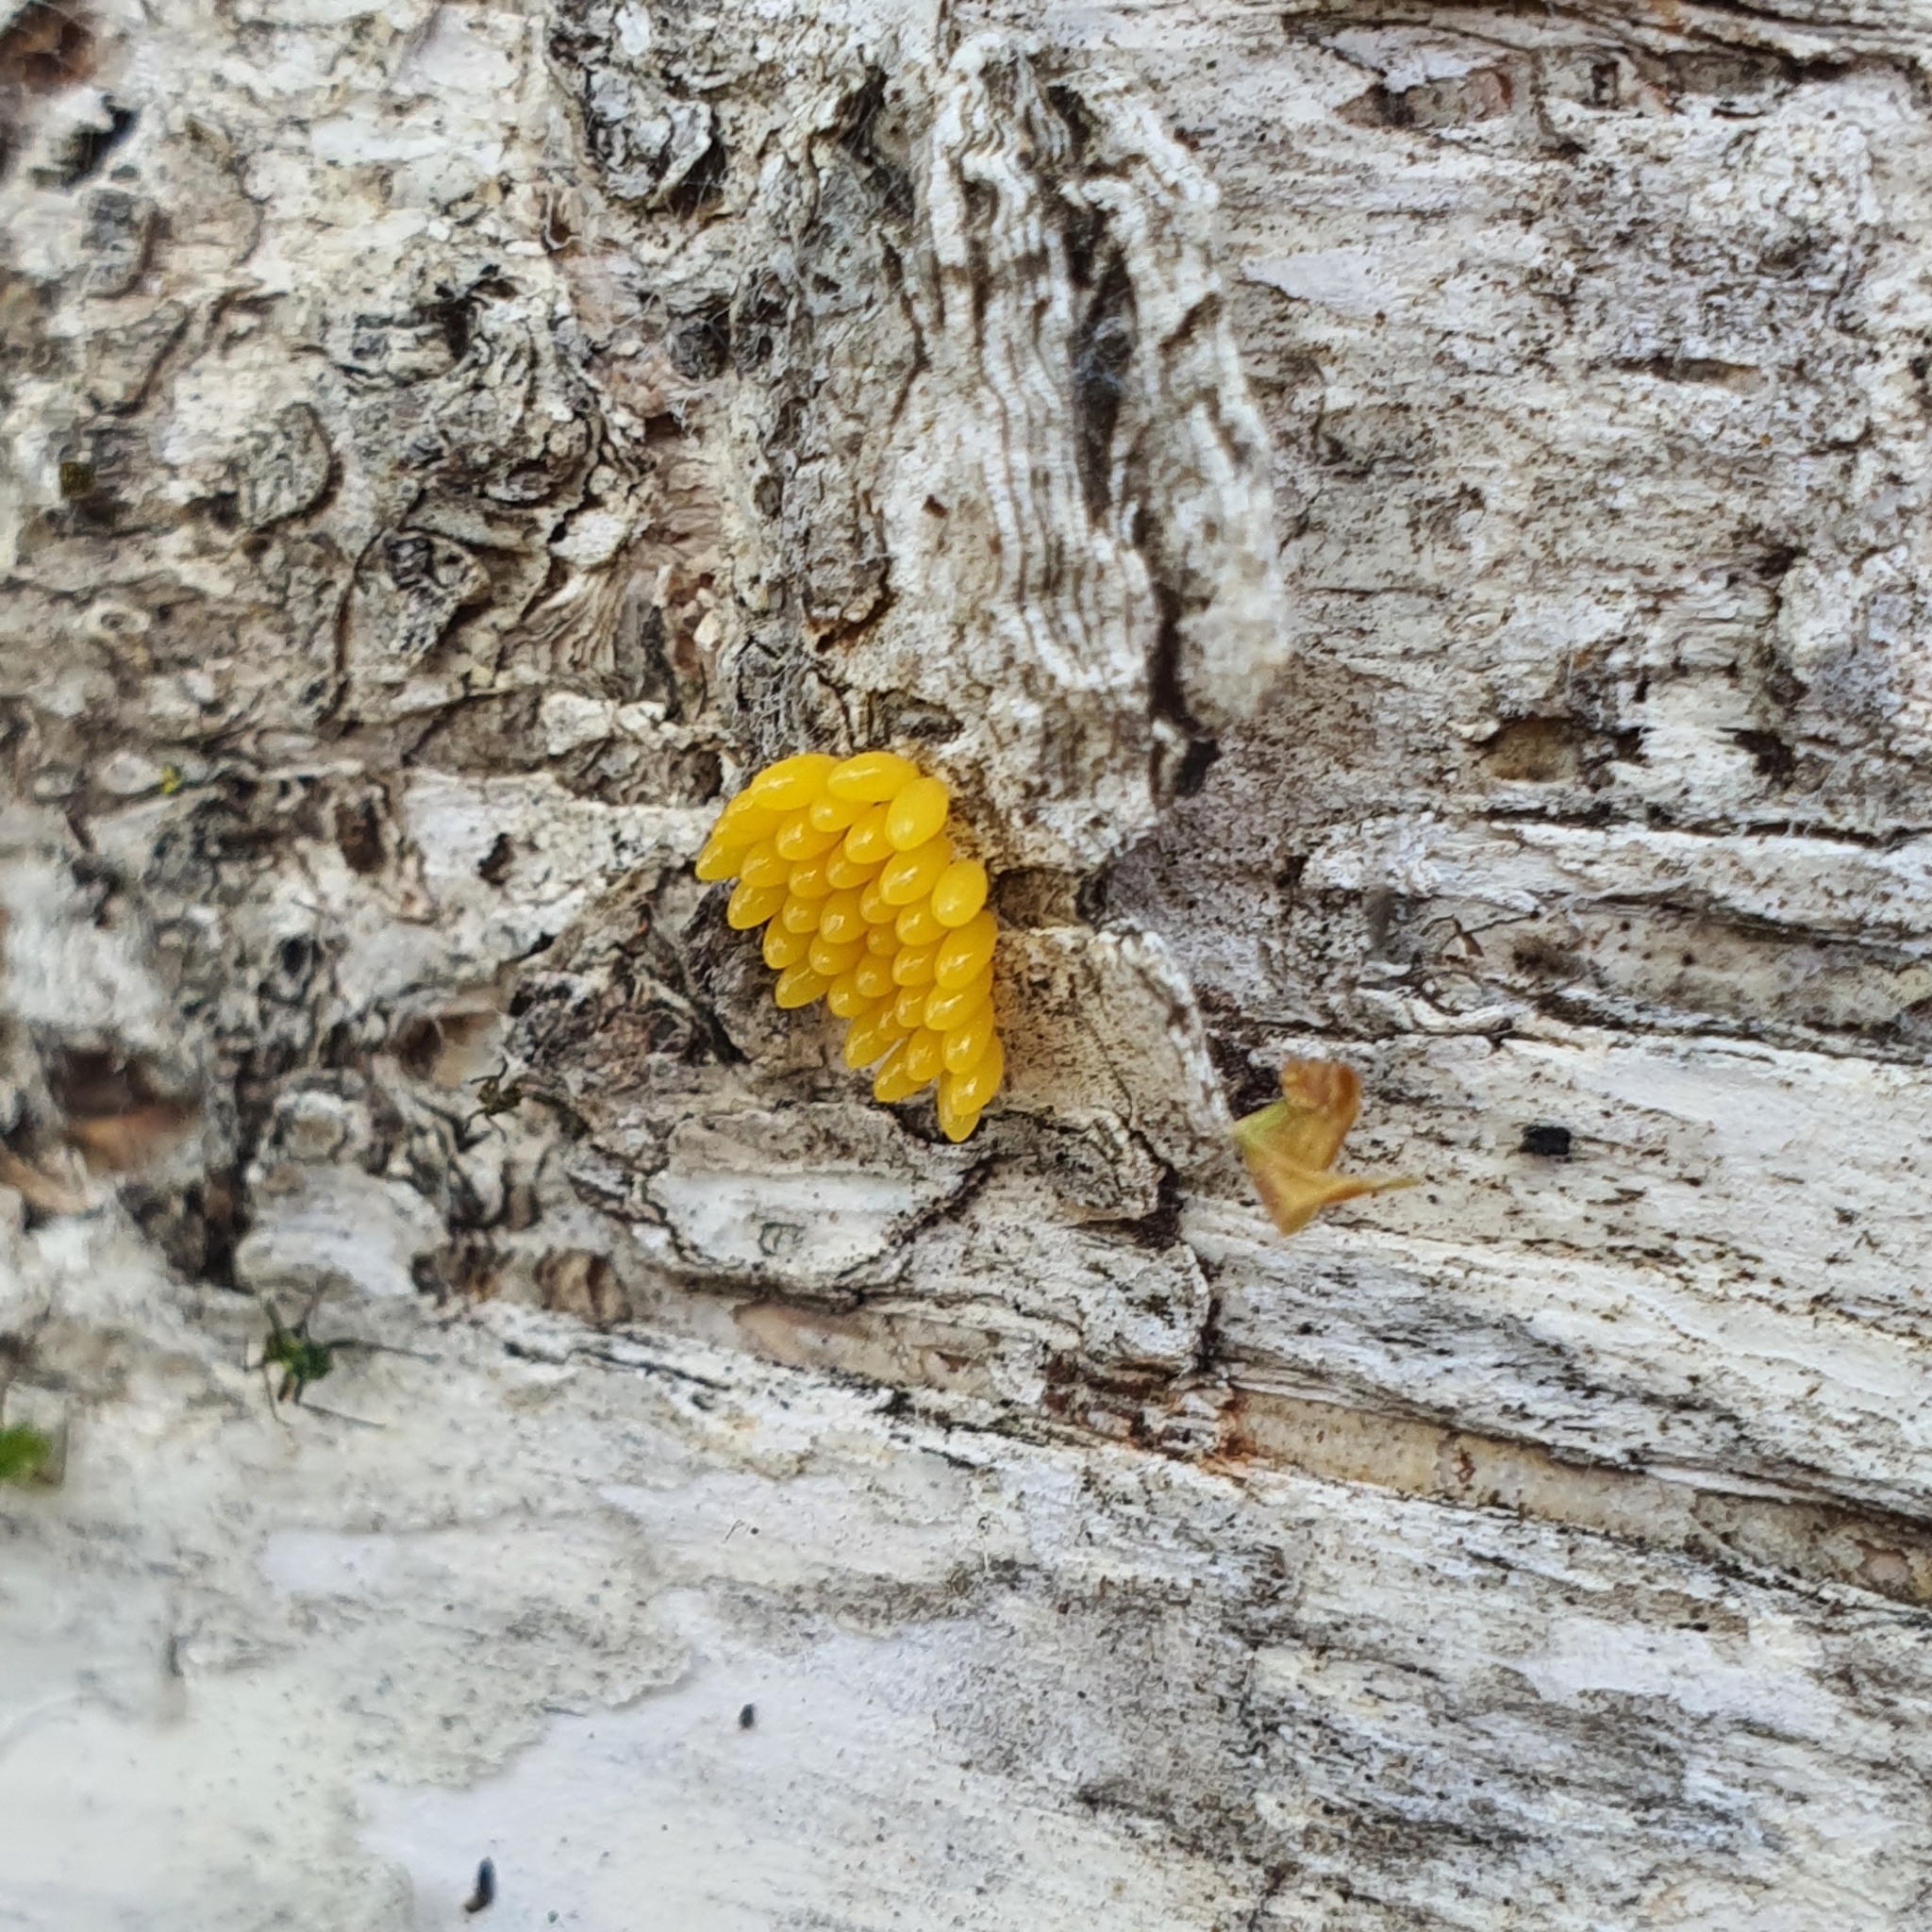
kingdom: Animalia
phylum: Arthropoda
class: Insecta
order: Coleoptera
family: Coccinellidae
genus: Harmonia
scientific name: Harmonia conformis
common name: Common spotted ladybird beetle
